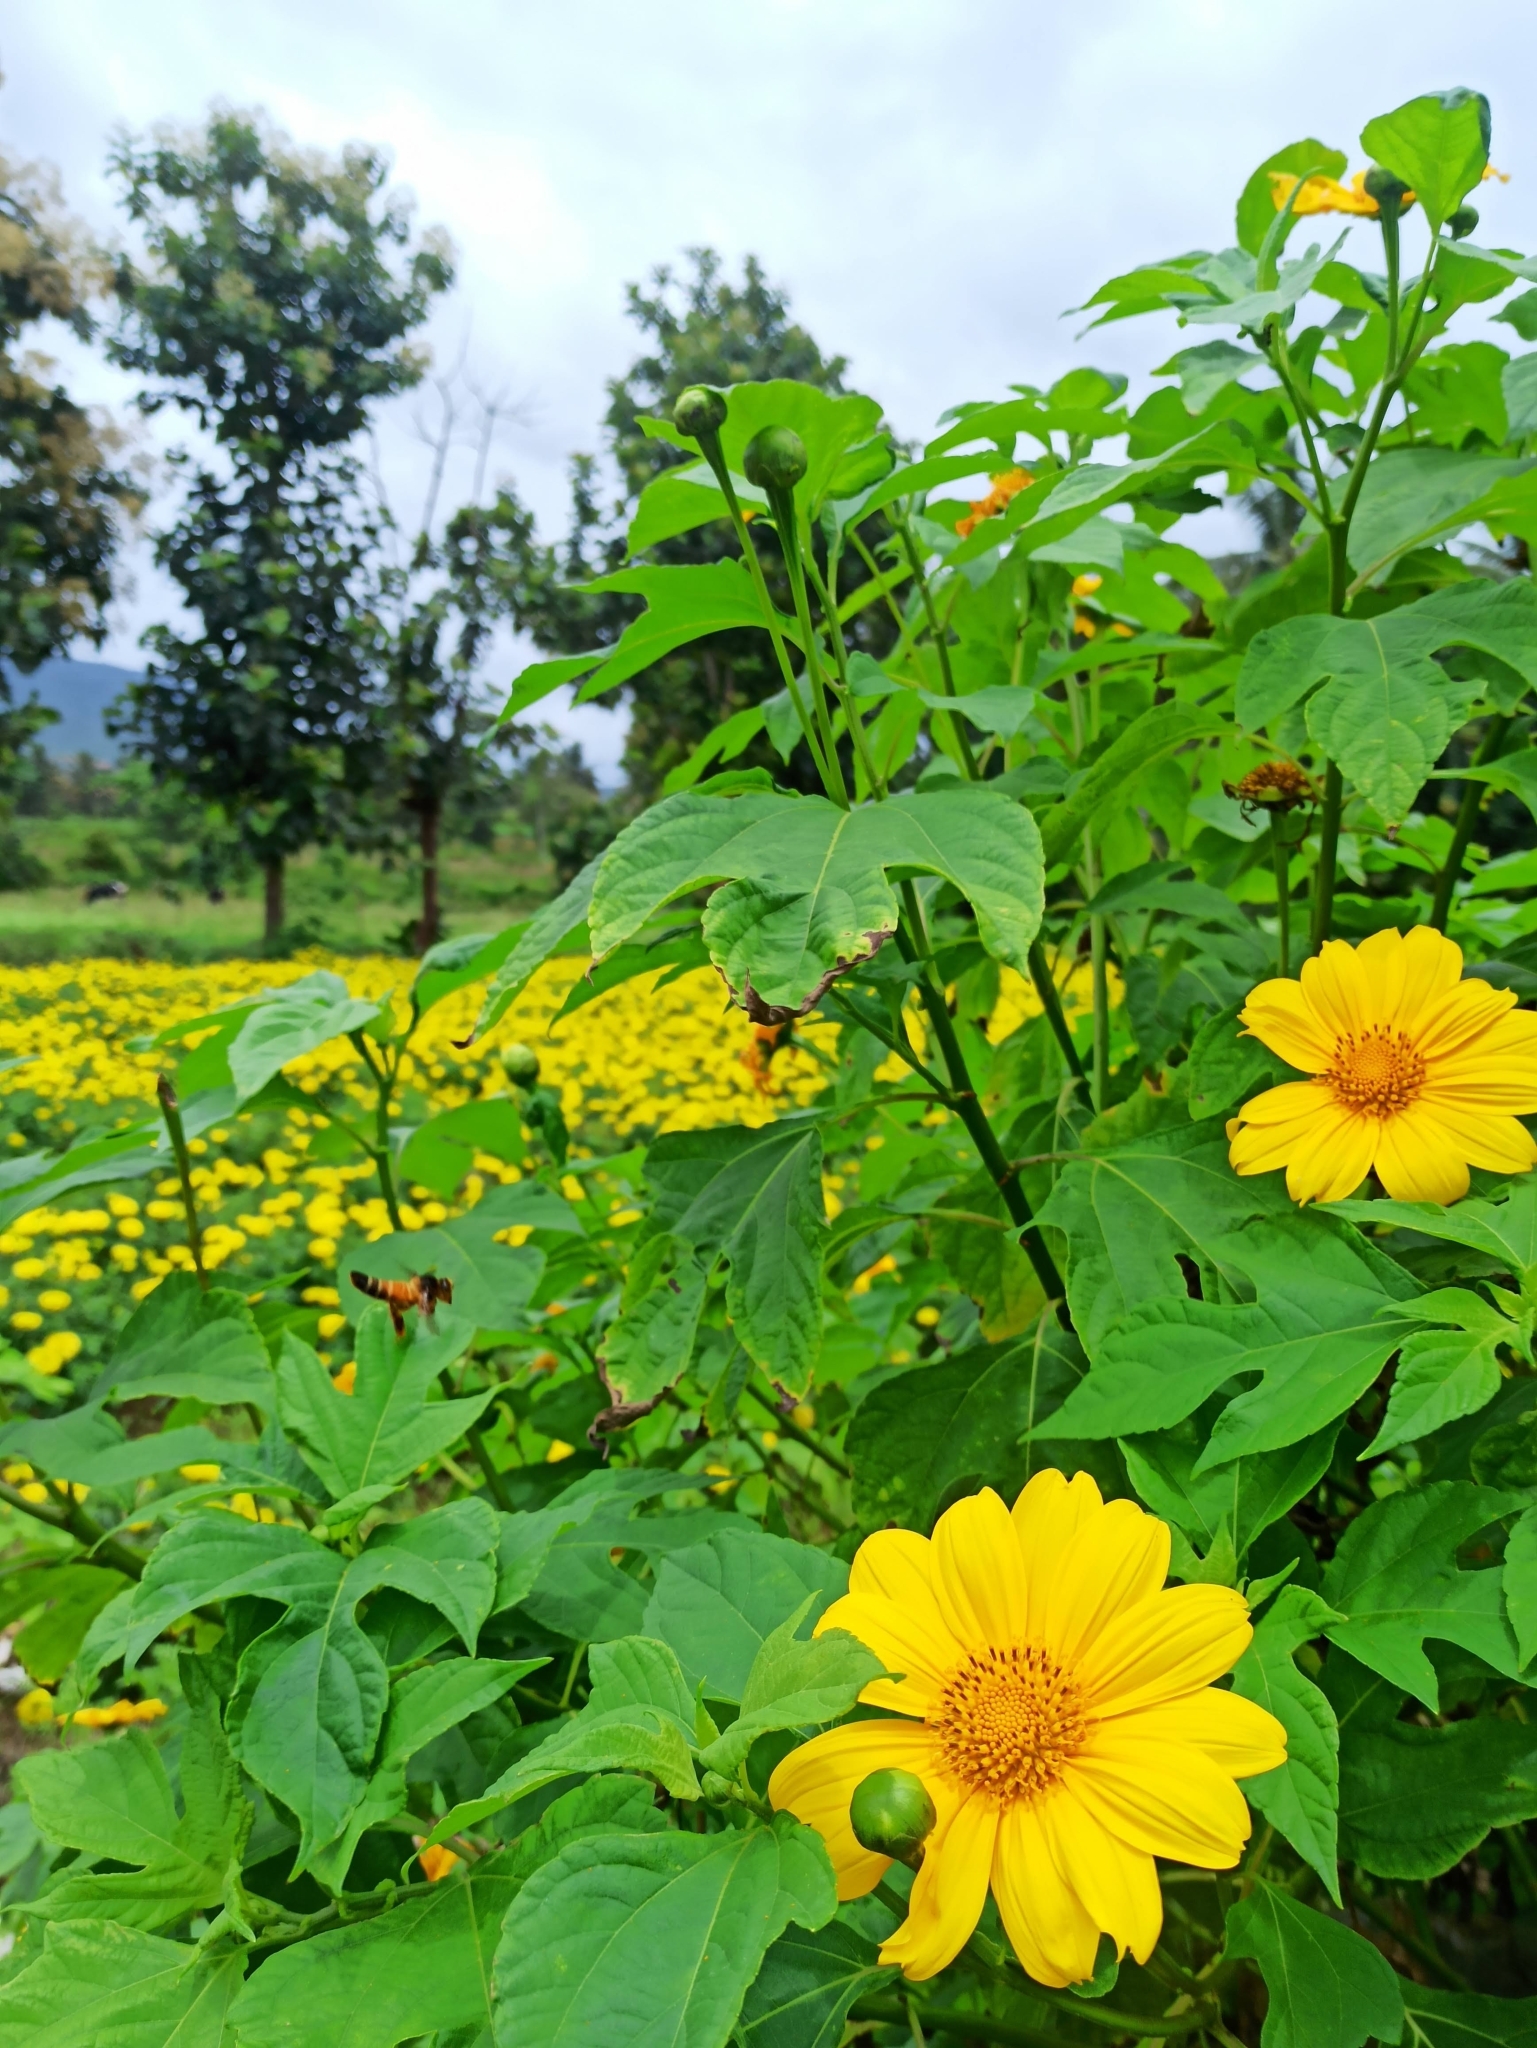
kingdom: Plantae
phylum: Tracheophyta
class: Magnoliopsida
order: Asterales
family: Asteraceae
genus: Tithonia
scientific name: Tithonia diversifolia
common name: Tree marigold
